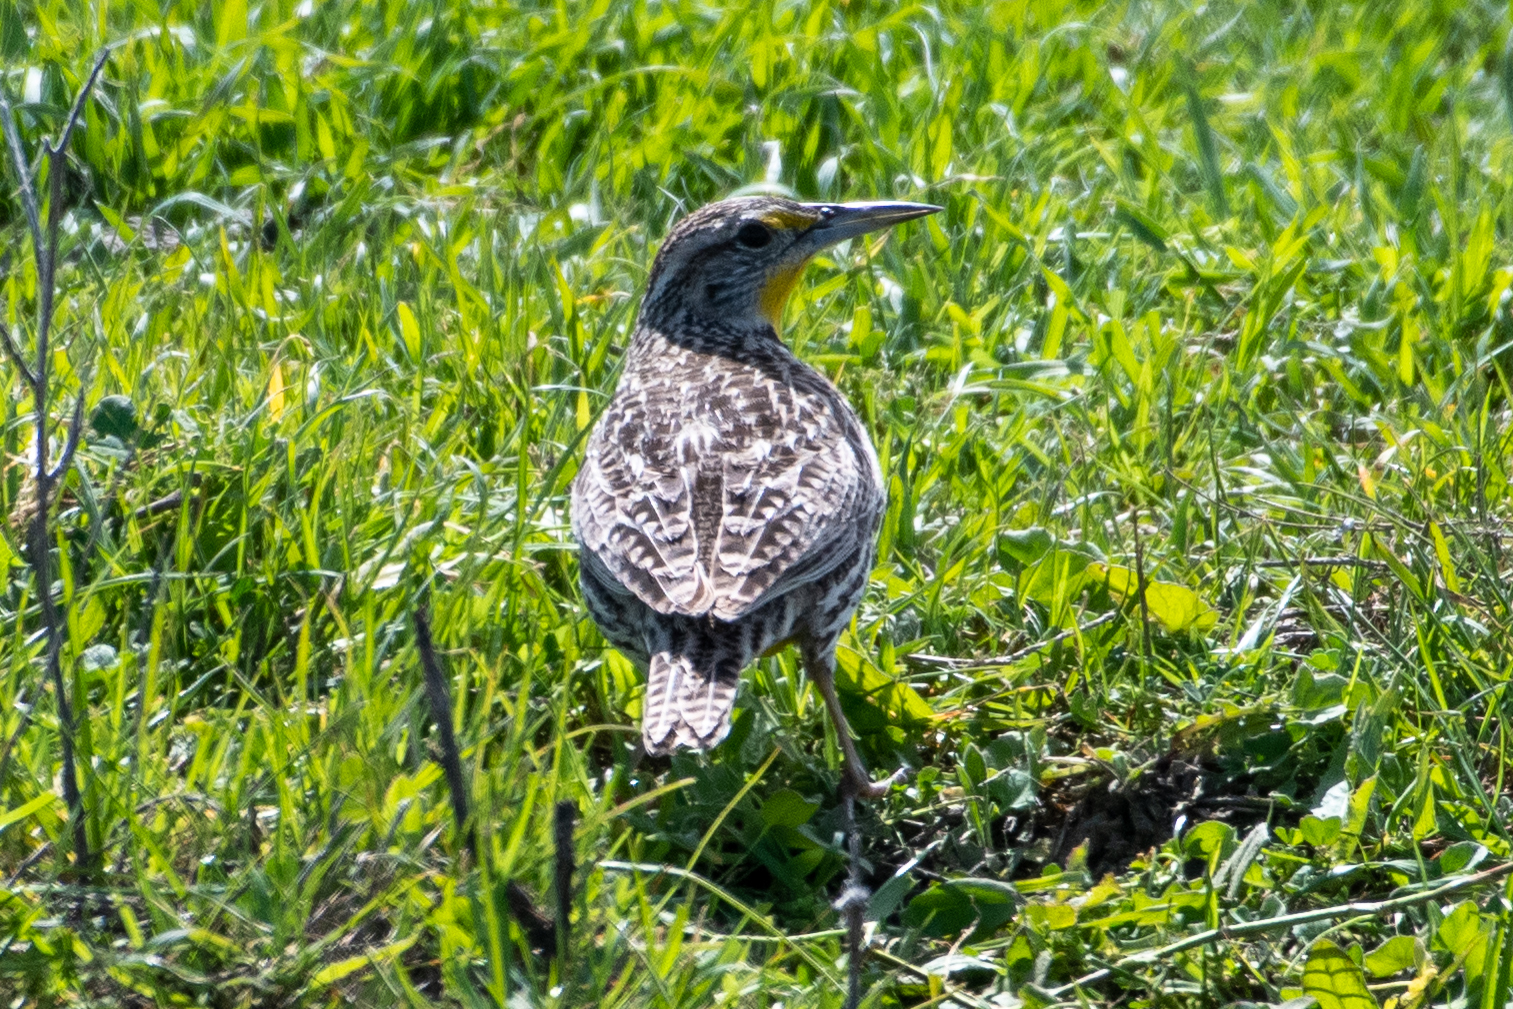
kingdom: Animalia
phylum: Chordata
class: Aves
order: Passeriformes
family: Icteridae
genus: Sturnella
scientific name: Sturnella neglecta
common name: Western meadowlark
